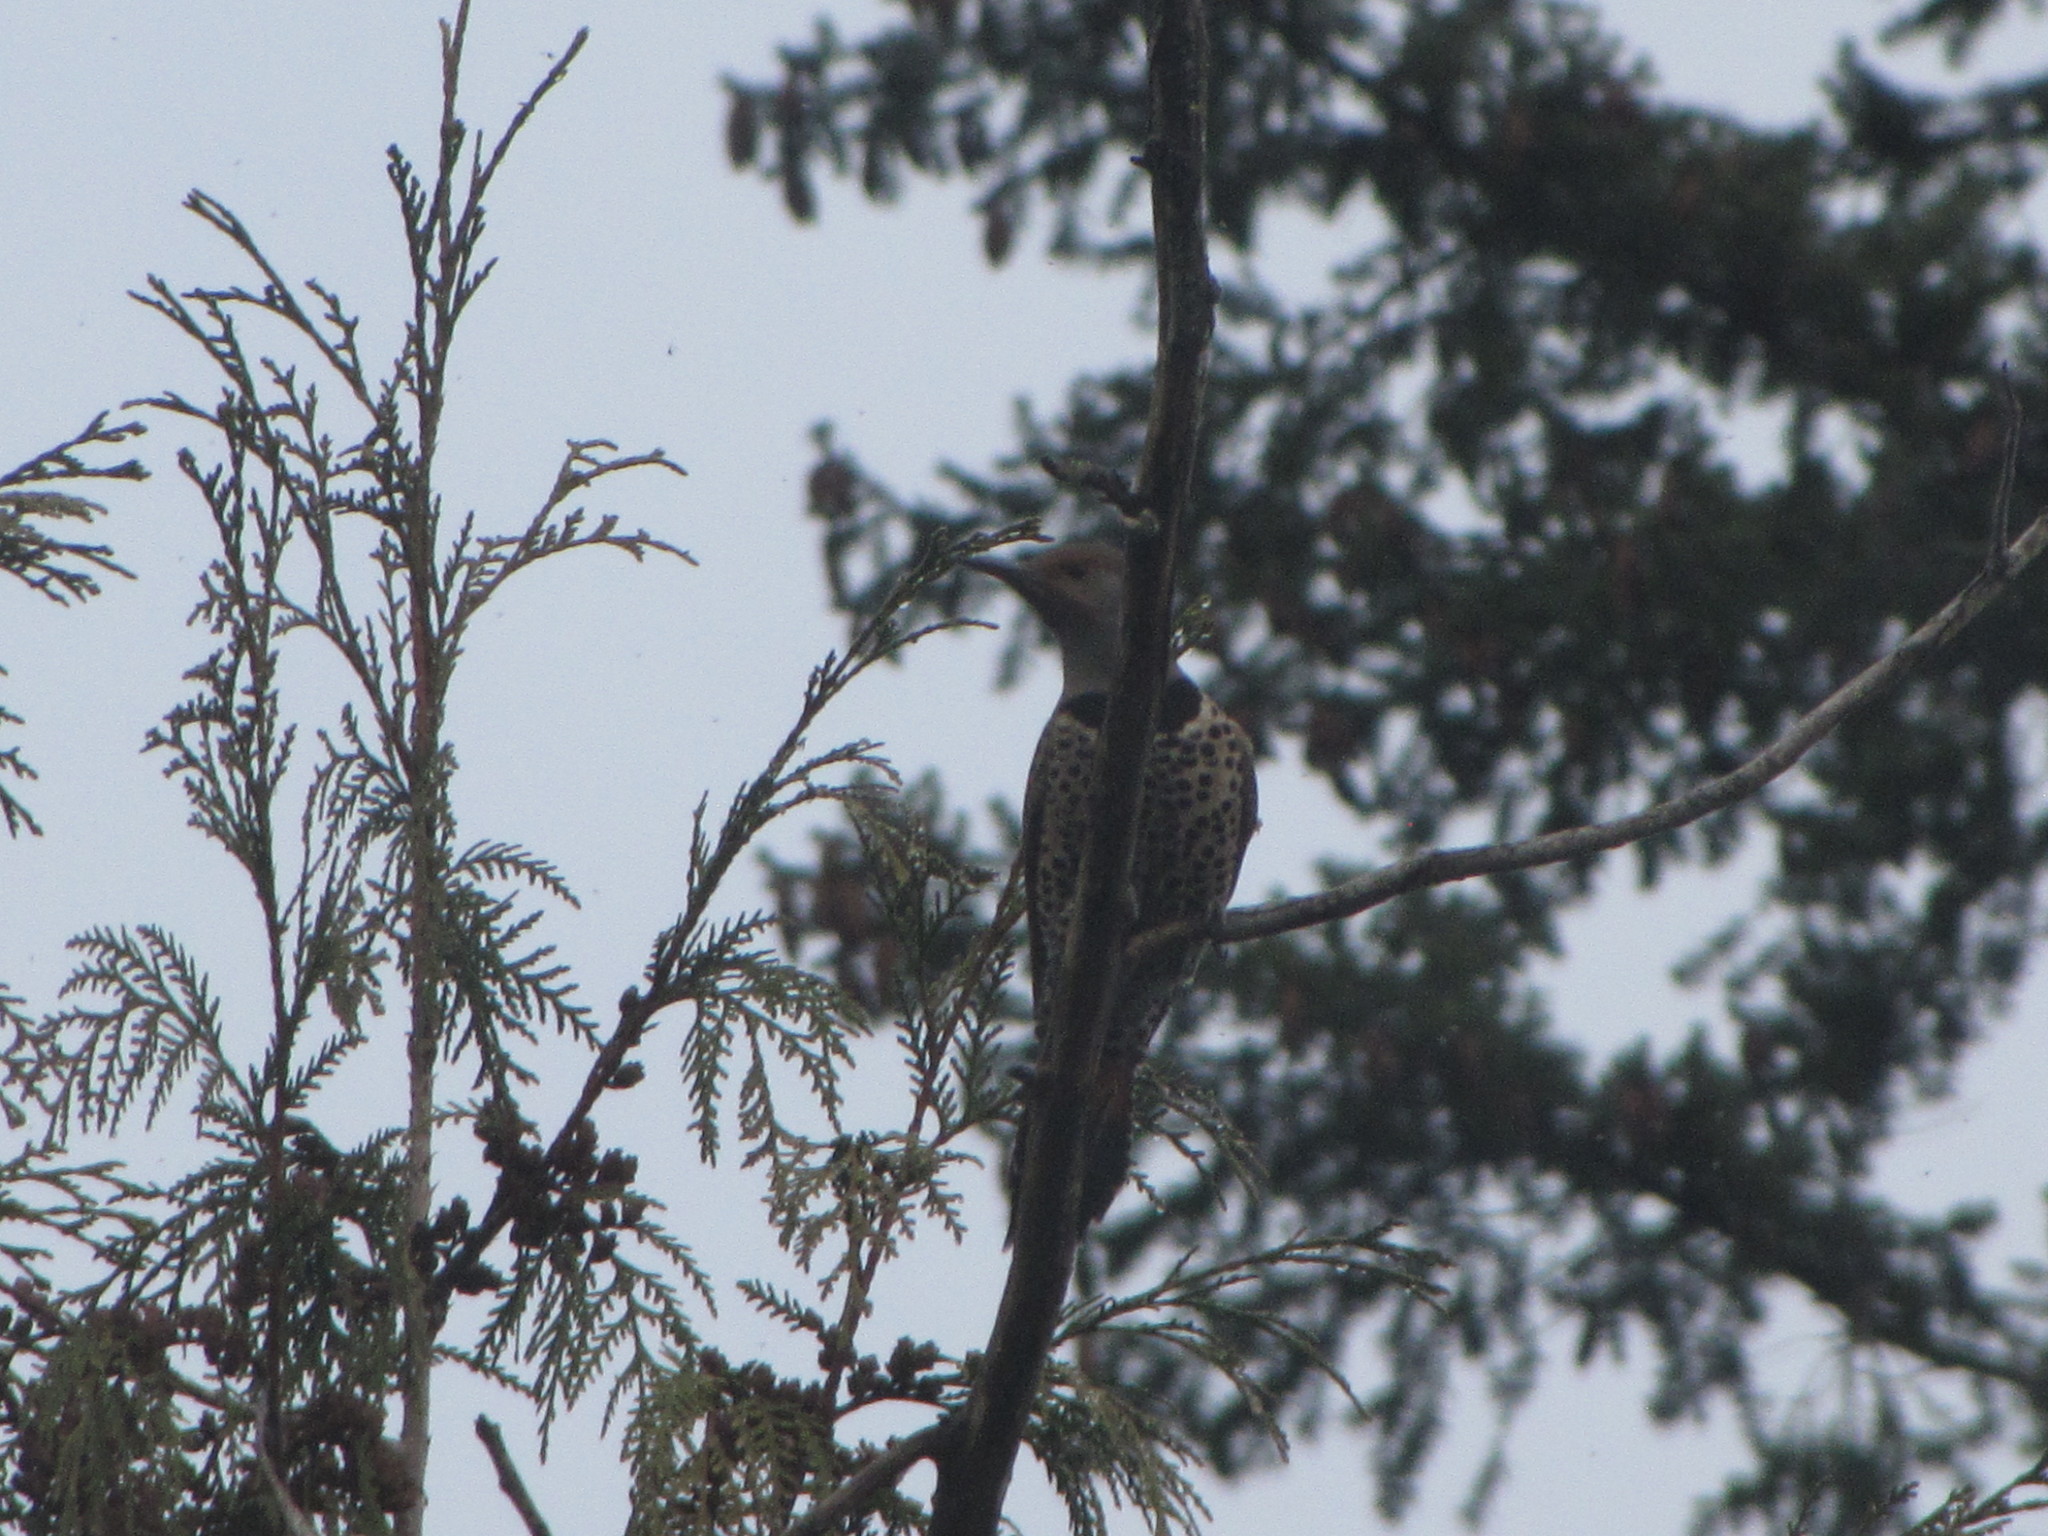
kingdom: Animalia
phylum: Chordata
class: Aves
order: Piciformes
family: Picidae
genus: Colaptes
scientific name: Colaptes auratus
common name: Northern flicker
